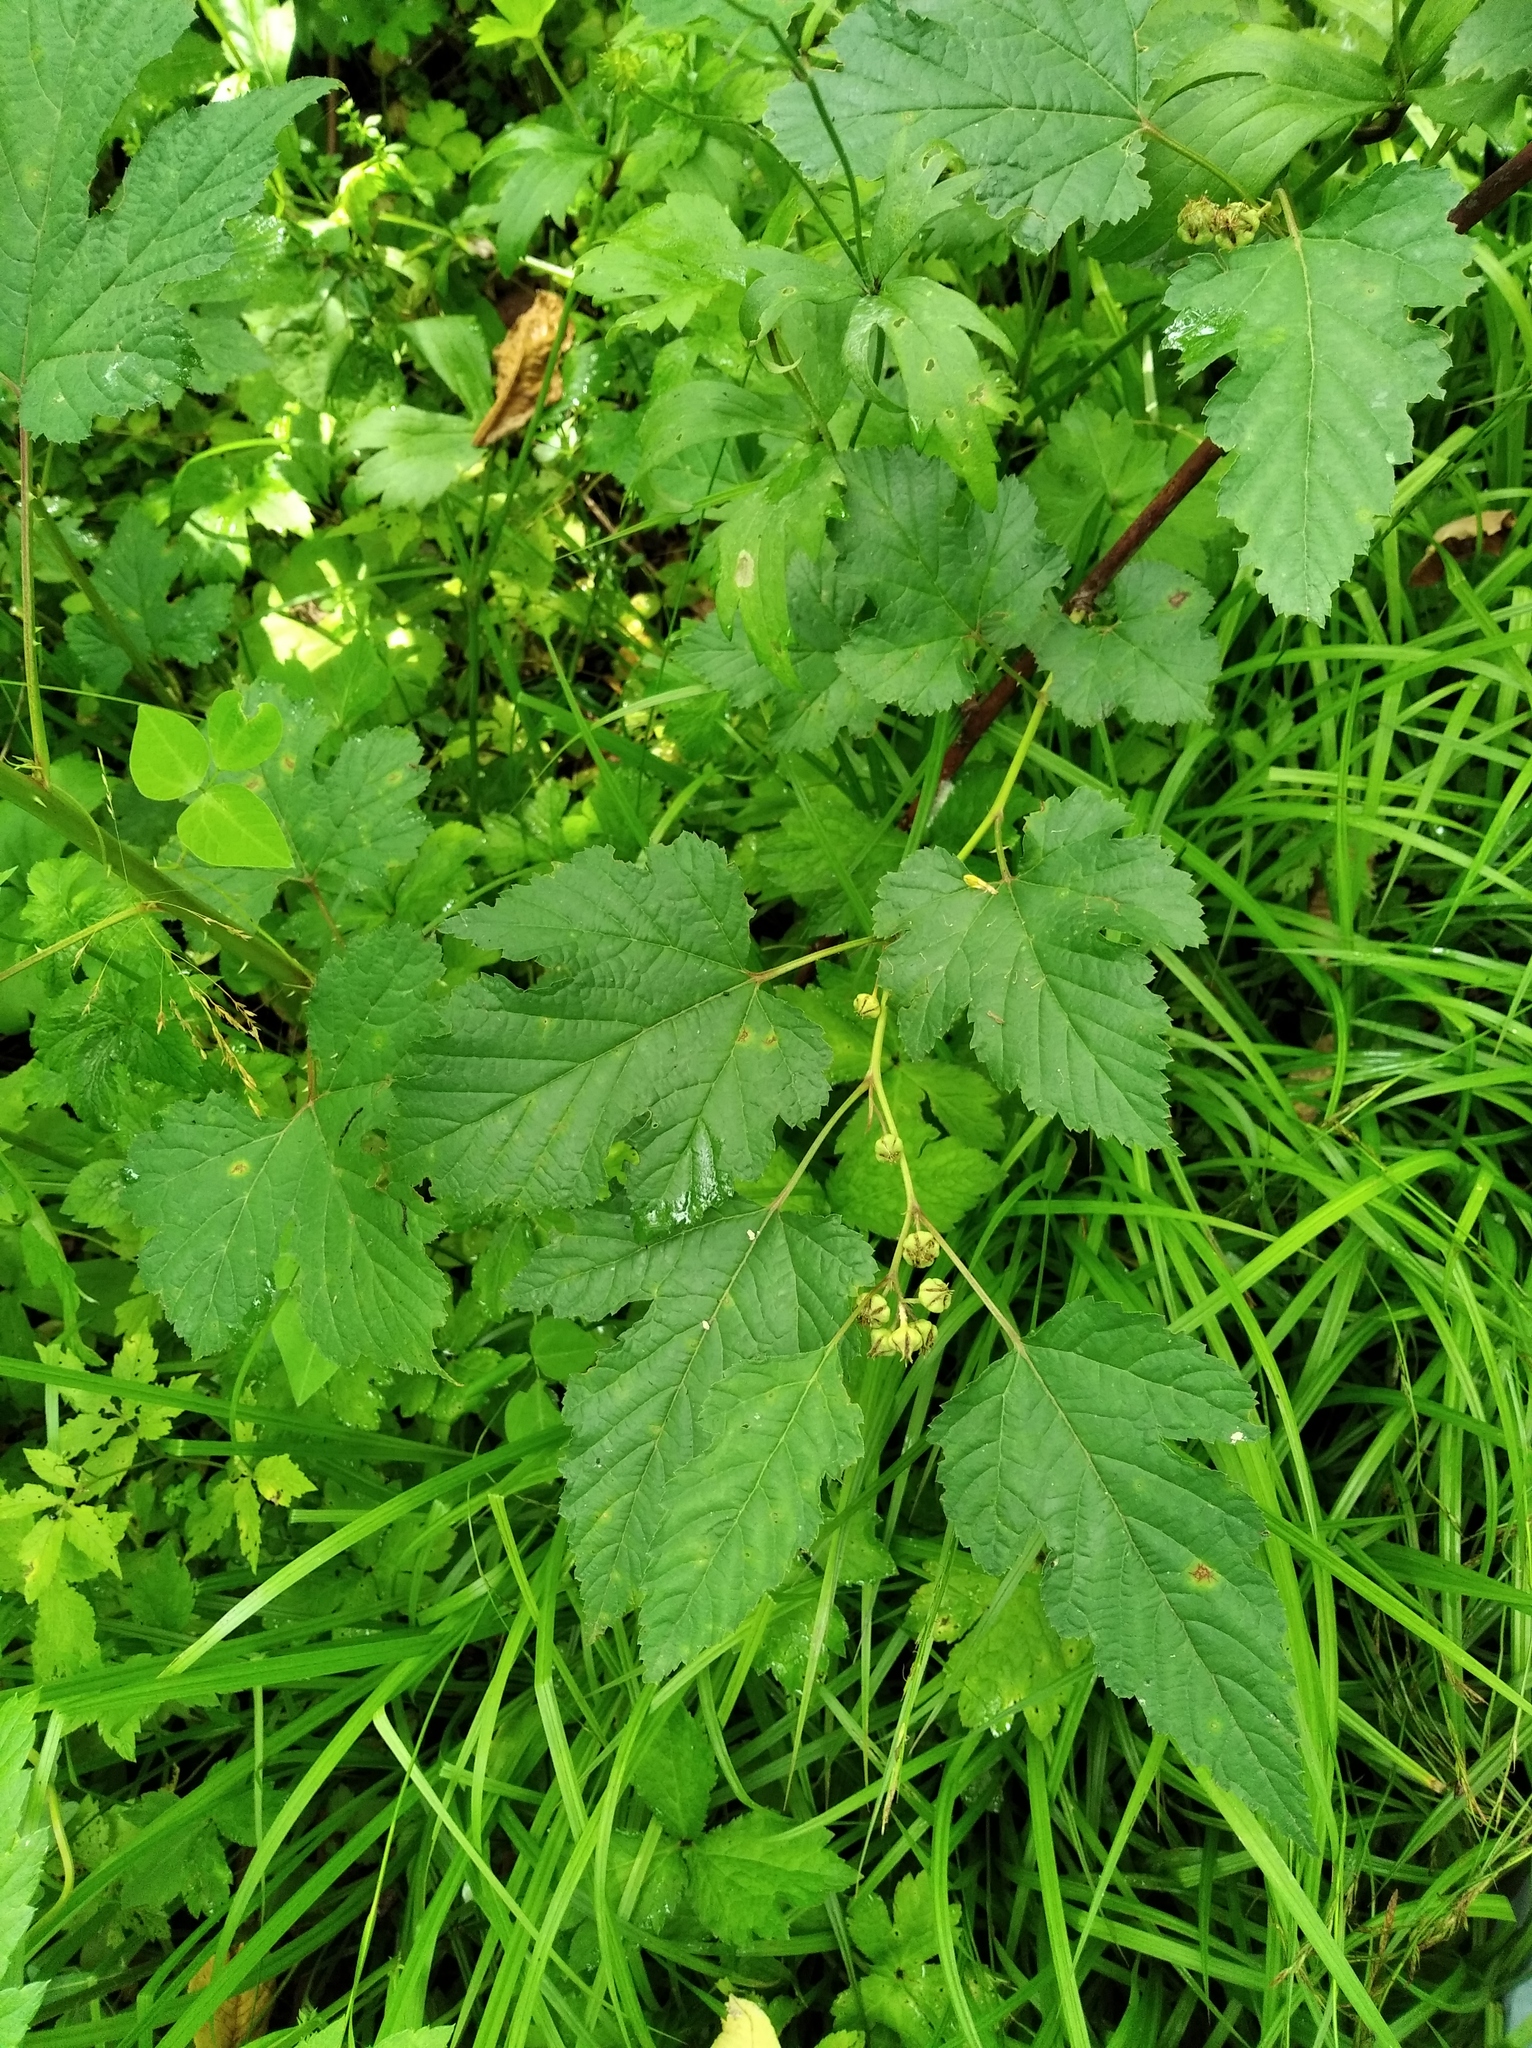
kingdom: Plantae
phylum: Tracheophyta
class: Magnoliopsida
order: Rosales
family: Rosaceae
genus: Rubus
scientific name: Rubus crataegifolius
